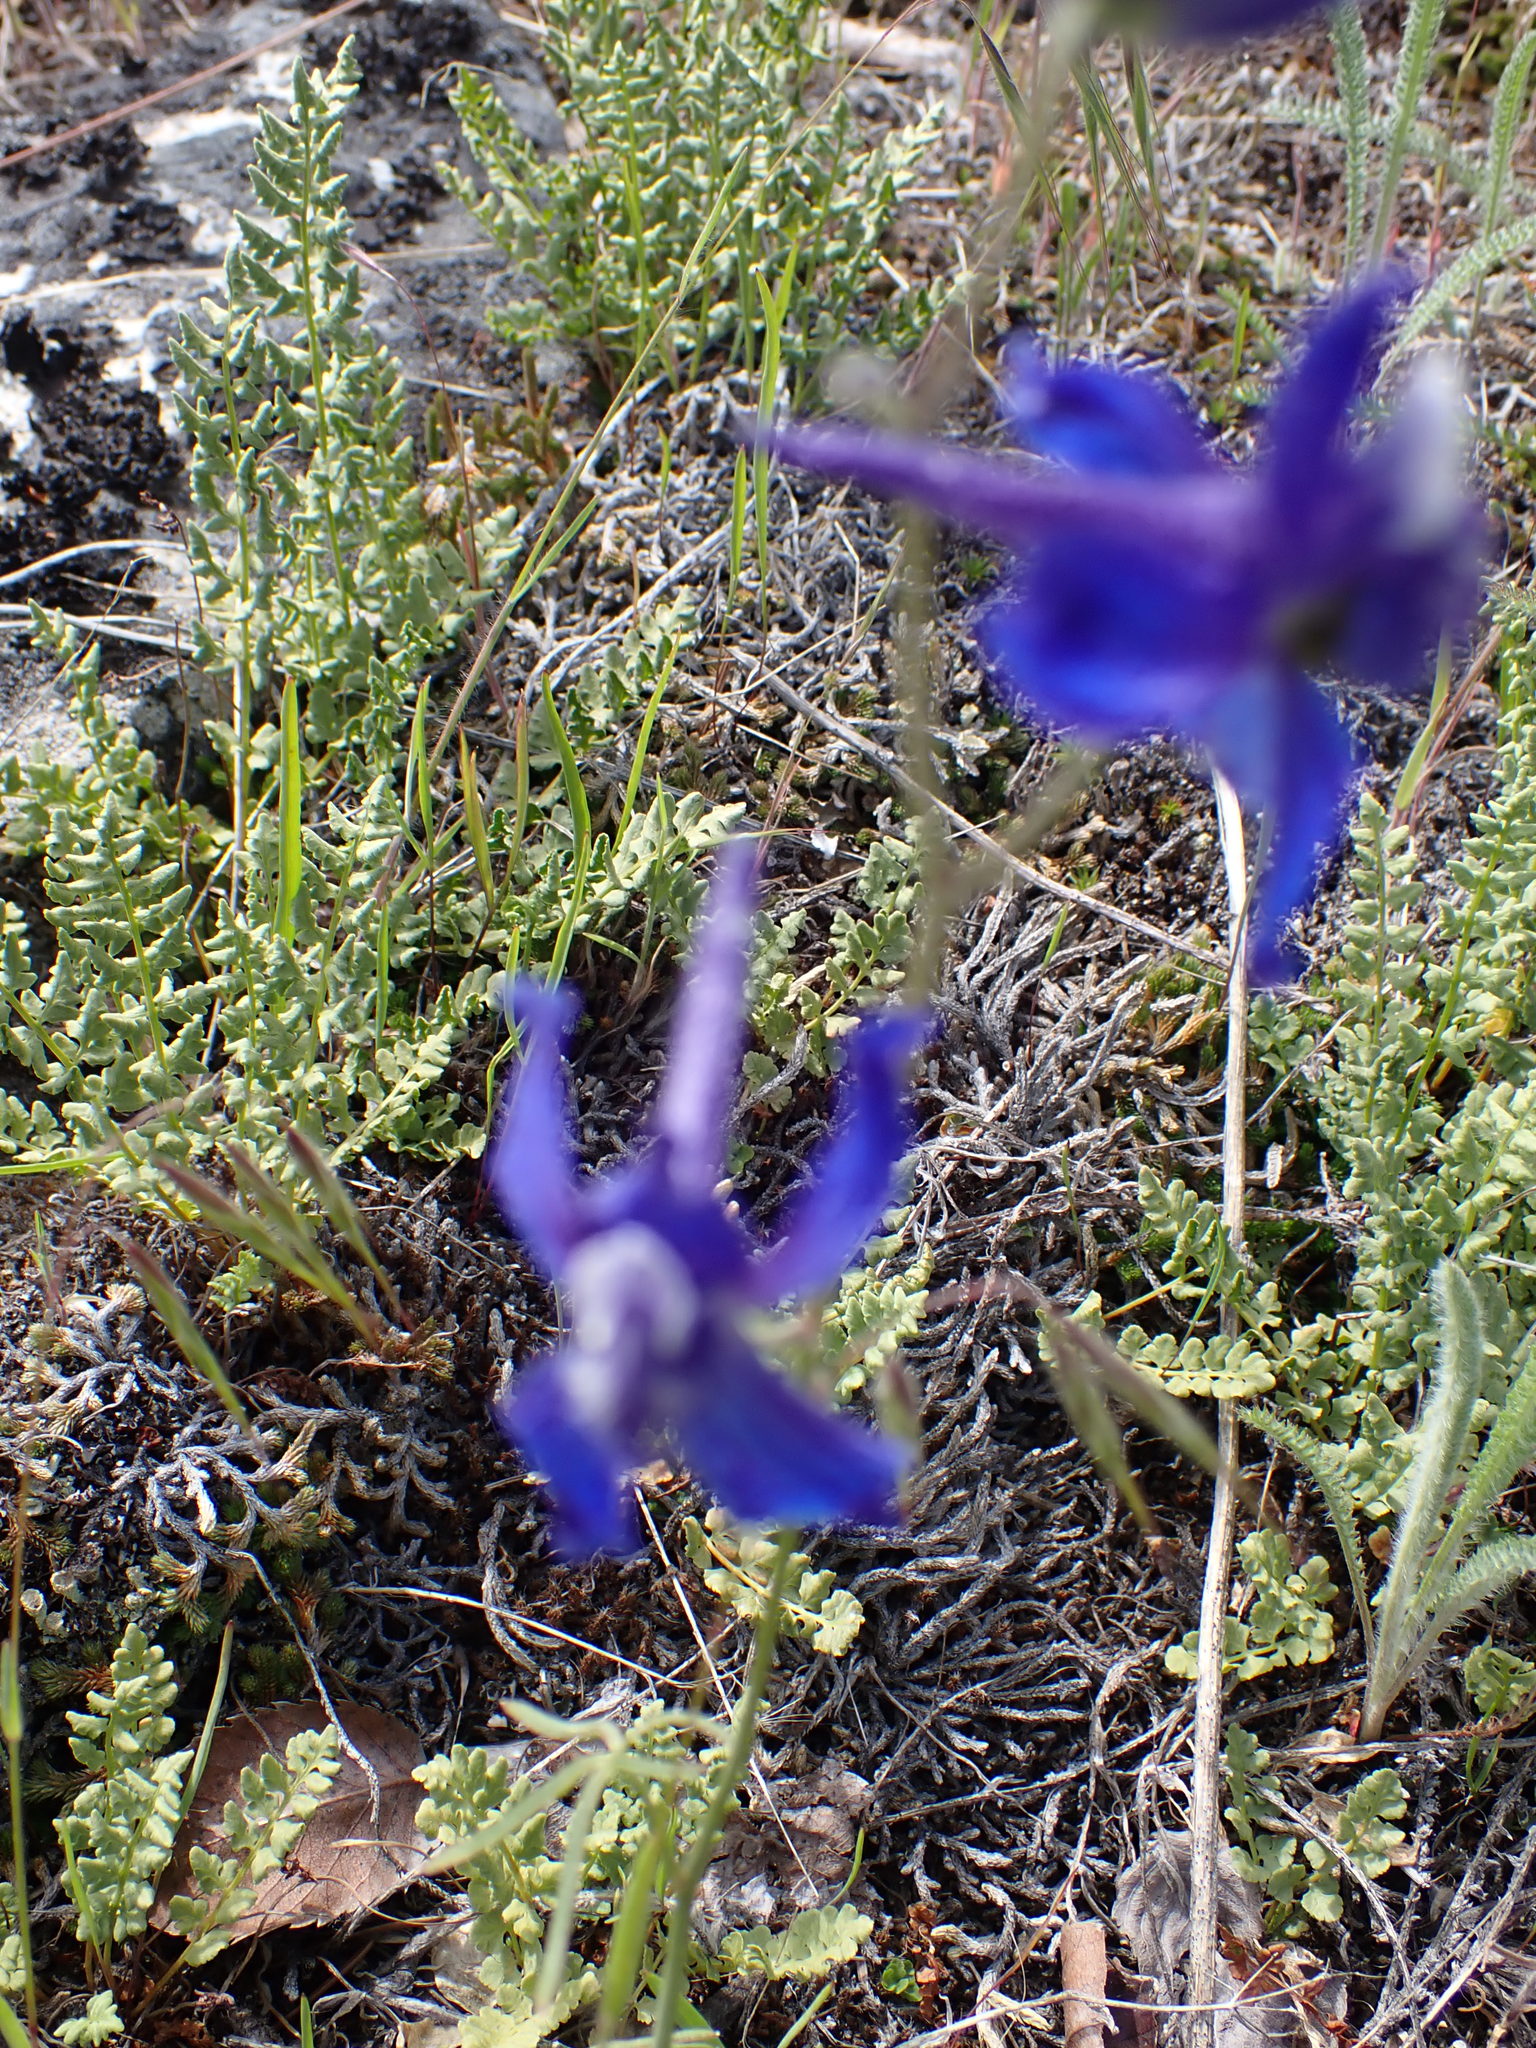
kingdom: Plantae
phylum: Tracheophyta
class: Magnoliopsida
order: Ranunculales
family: Ranunculaceae
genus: Delphinium
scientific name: Delphinium nuttallianum
